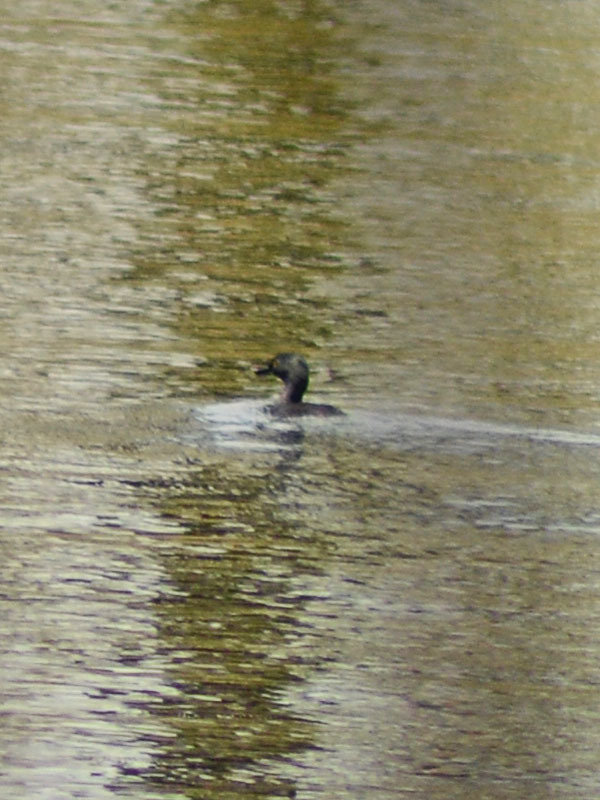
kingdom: Animalia
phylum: Chordata
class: Aves
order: Podicipediformes
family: Podicipedidae
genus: Tachybaptus
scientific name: Tachybaptus dominicus
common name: Least grebe
